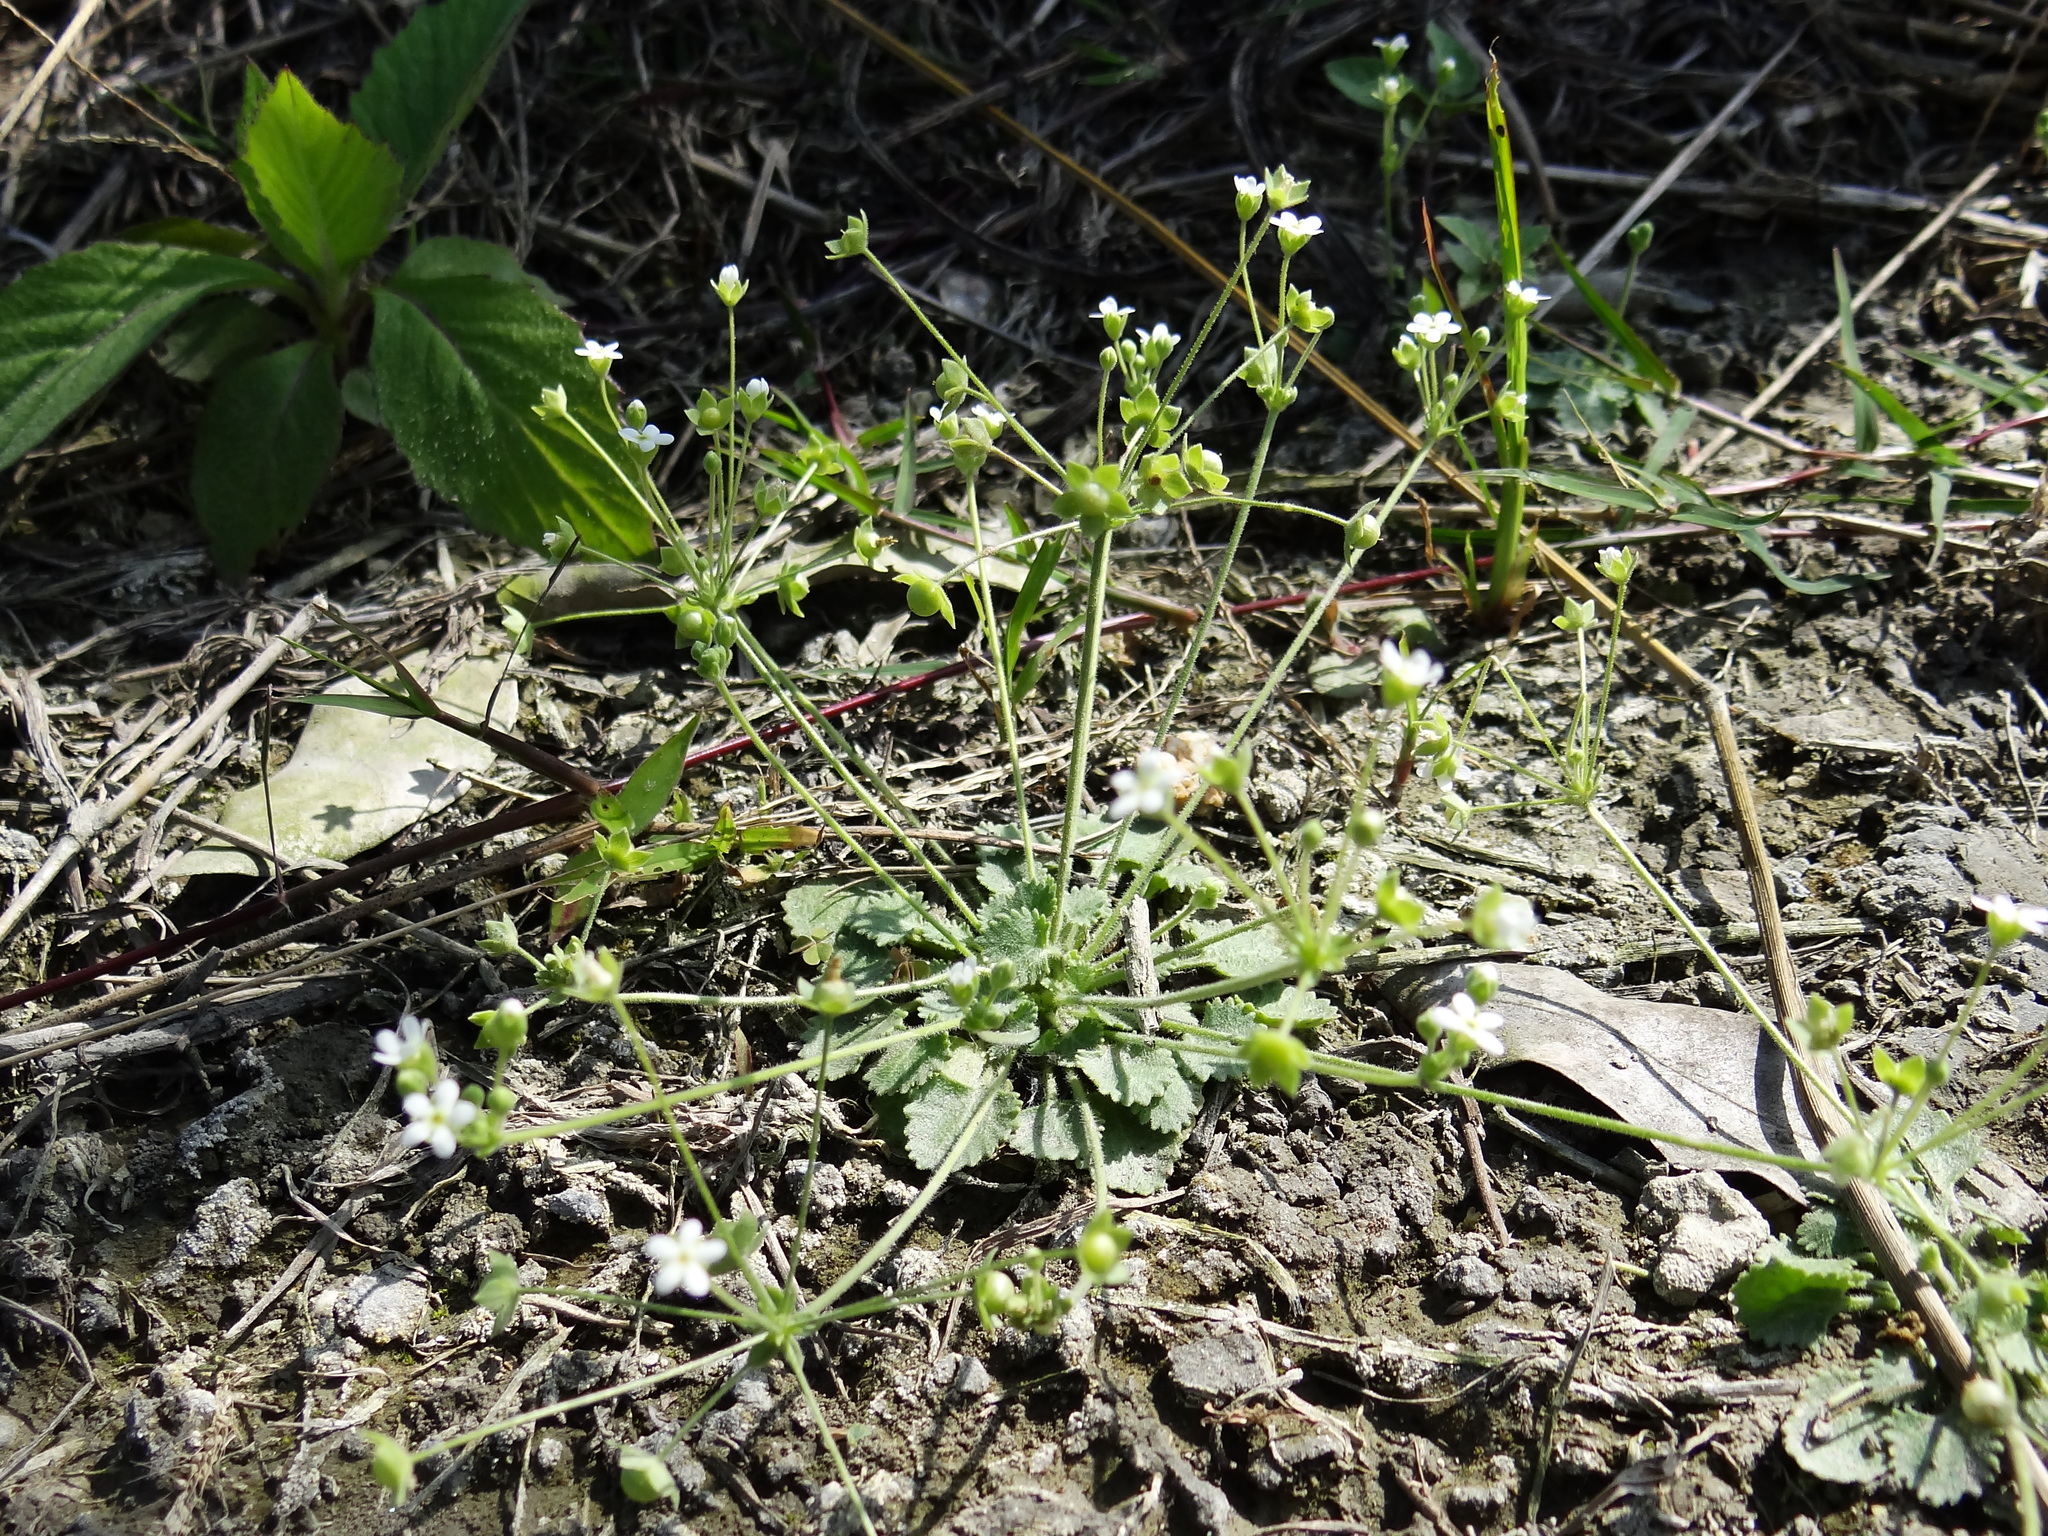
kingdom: Plantae
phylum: Tracheophyta
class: Magnoliopsida
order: Ericales
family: Primulaceae
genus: Androsace
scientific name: Androsace umbellata
